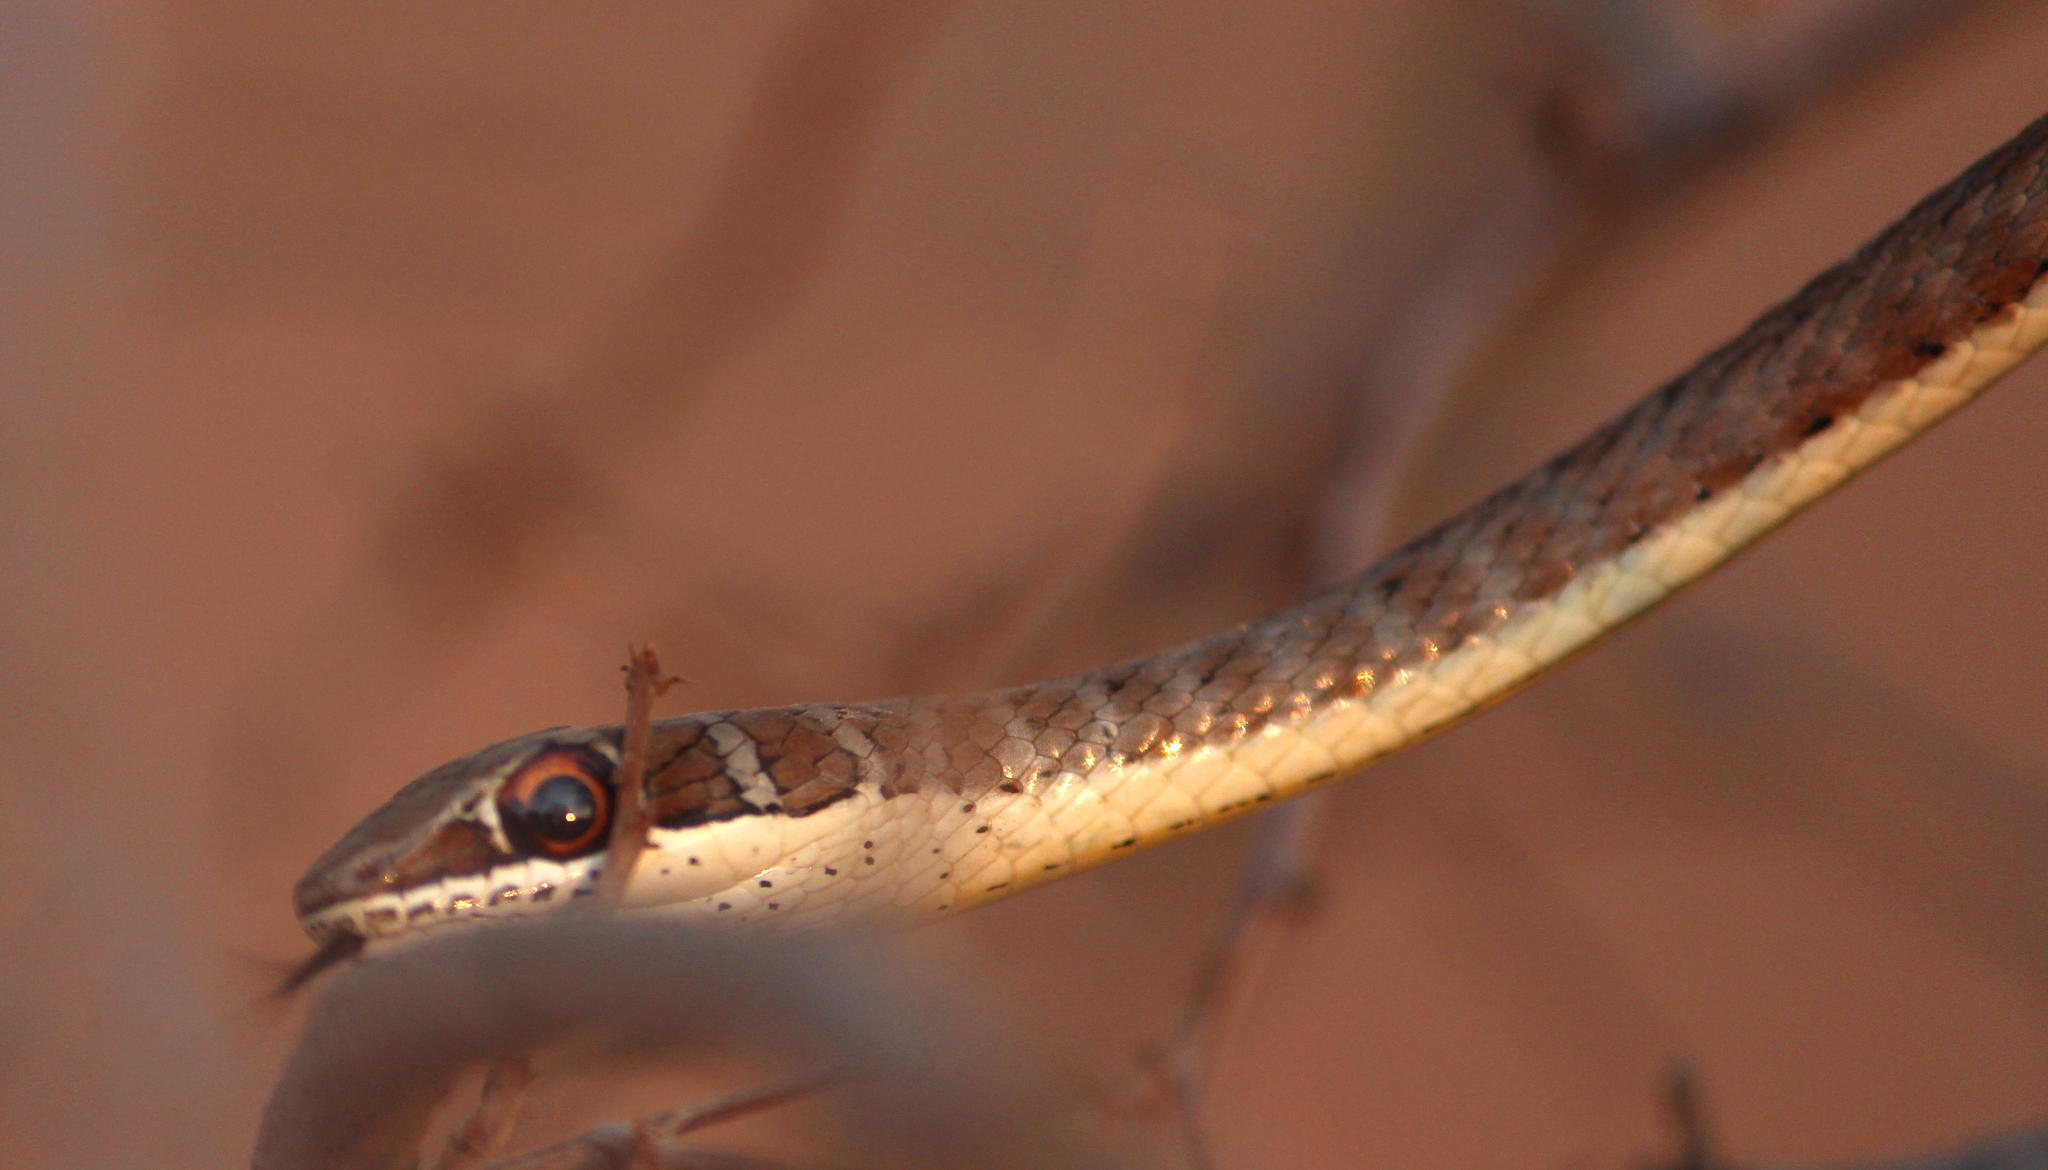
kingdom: Animalia
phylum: Chordata
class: Squamata
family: Psammophiidae
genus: Psammophis
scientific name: Psammophis subtaeniatus
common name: Stripe-bellied sand snake
